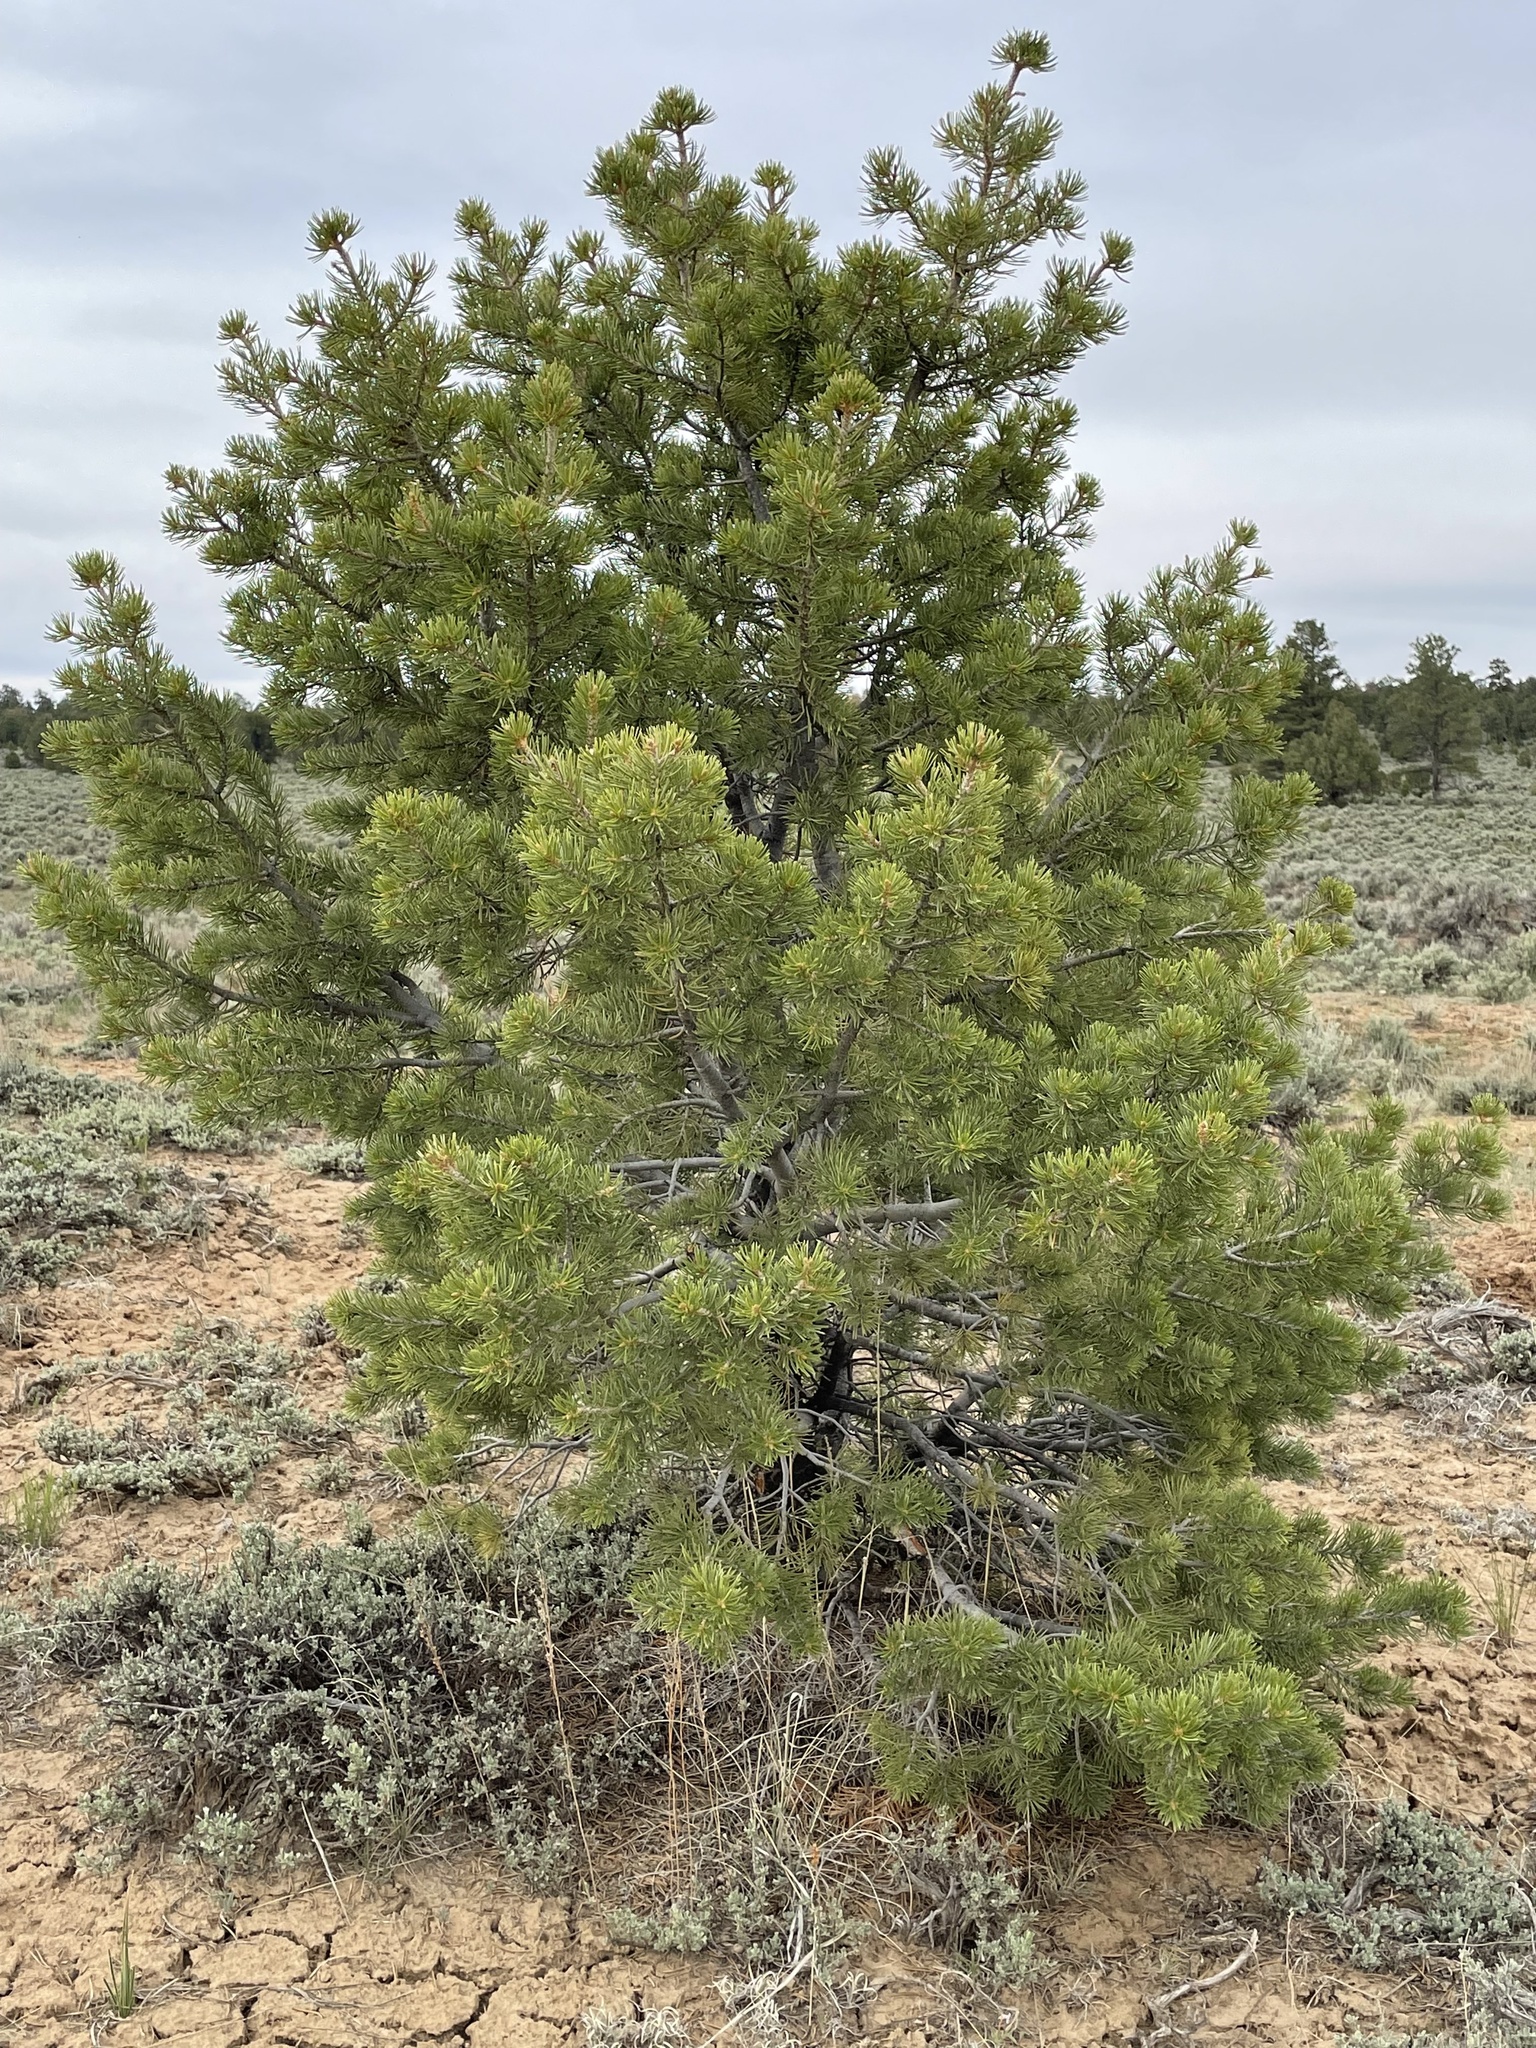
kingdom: Plantae
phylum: Tracheophyta
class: Pinopsida
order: Pinales
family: Pinaceae
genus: Pinus
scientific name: Pinus edulis
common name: Colorado pinyon
